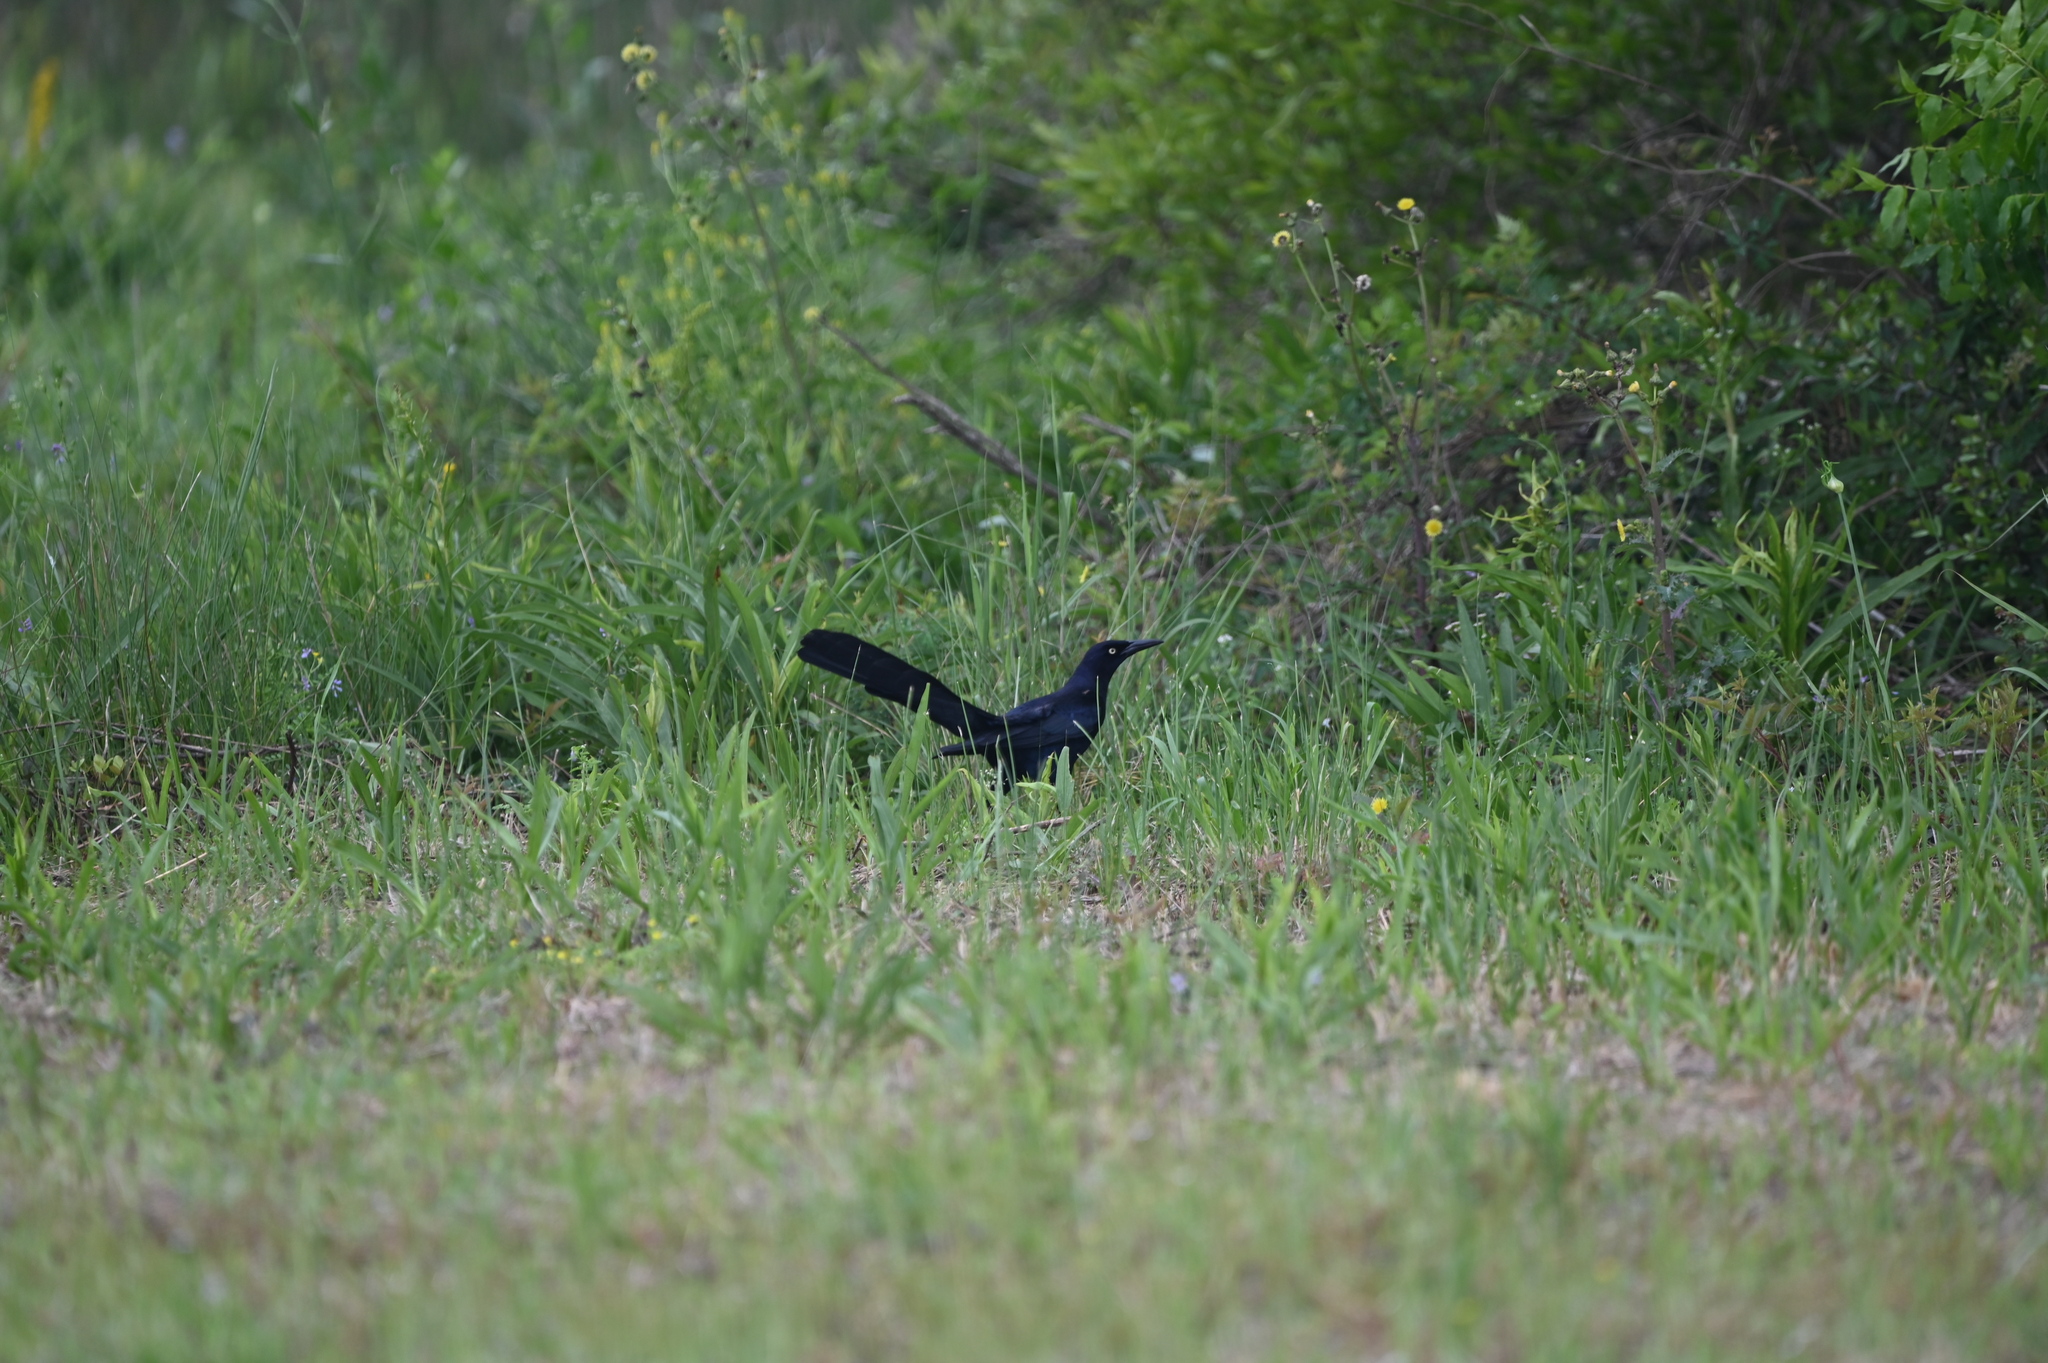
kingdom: Animalia
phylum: Chordata
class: Aves
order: Passeriformes
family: Icteridae
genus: Quiscalus
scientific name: Quiscalus mexicanus
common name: Great-tailed grackle
